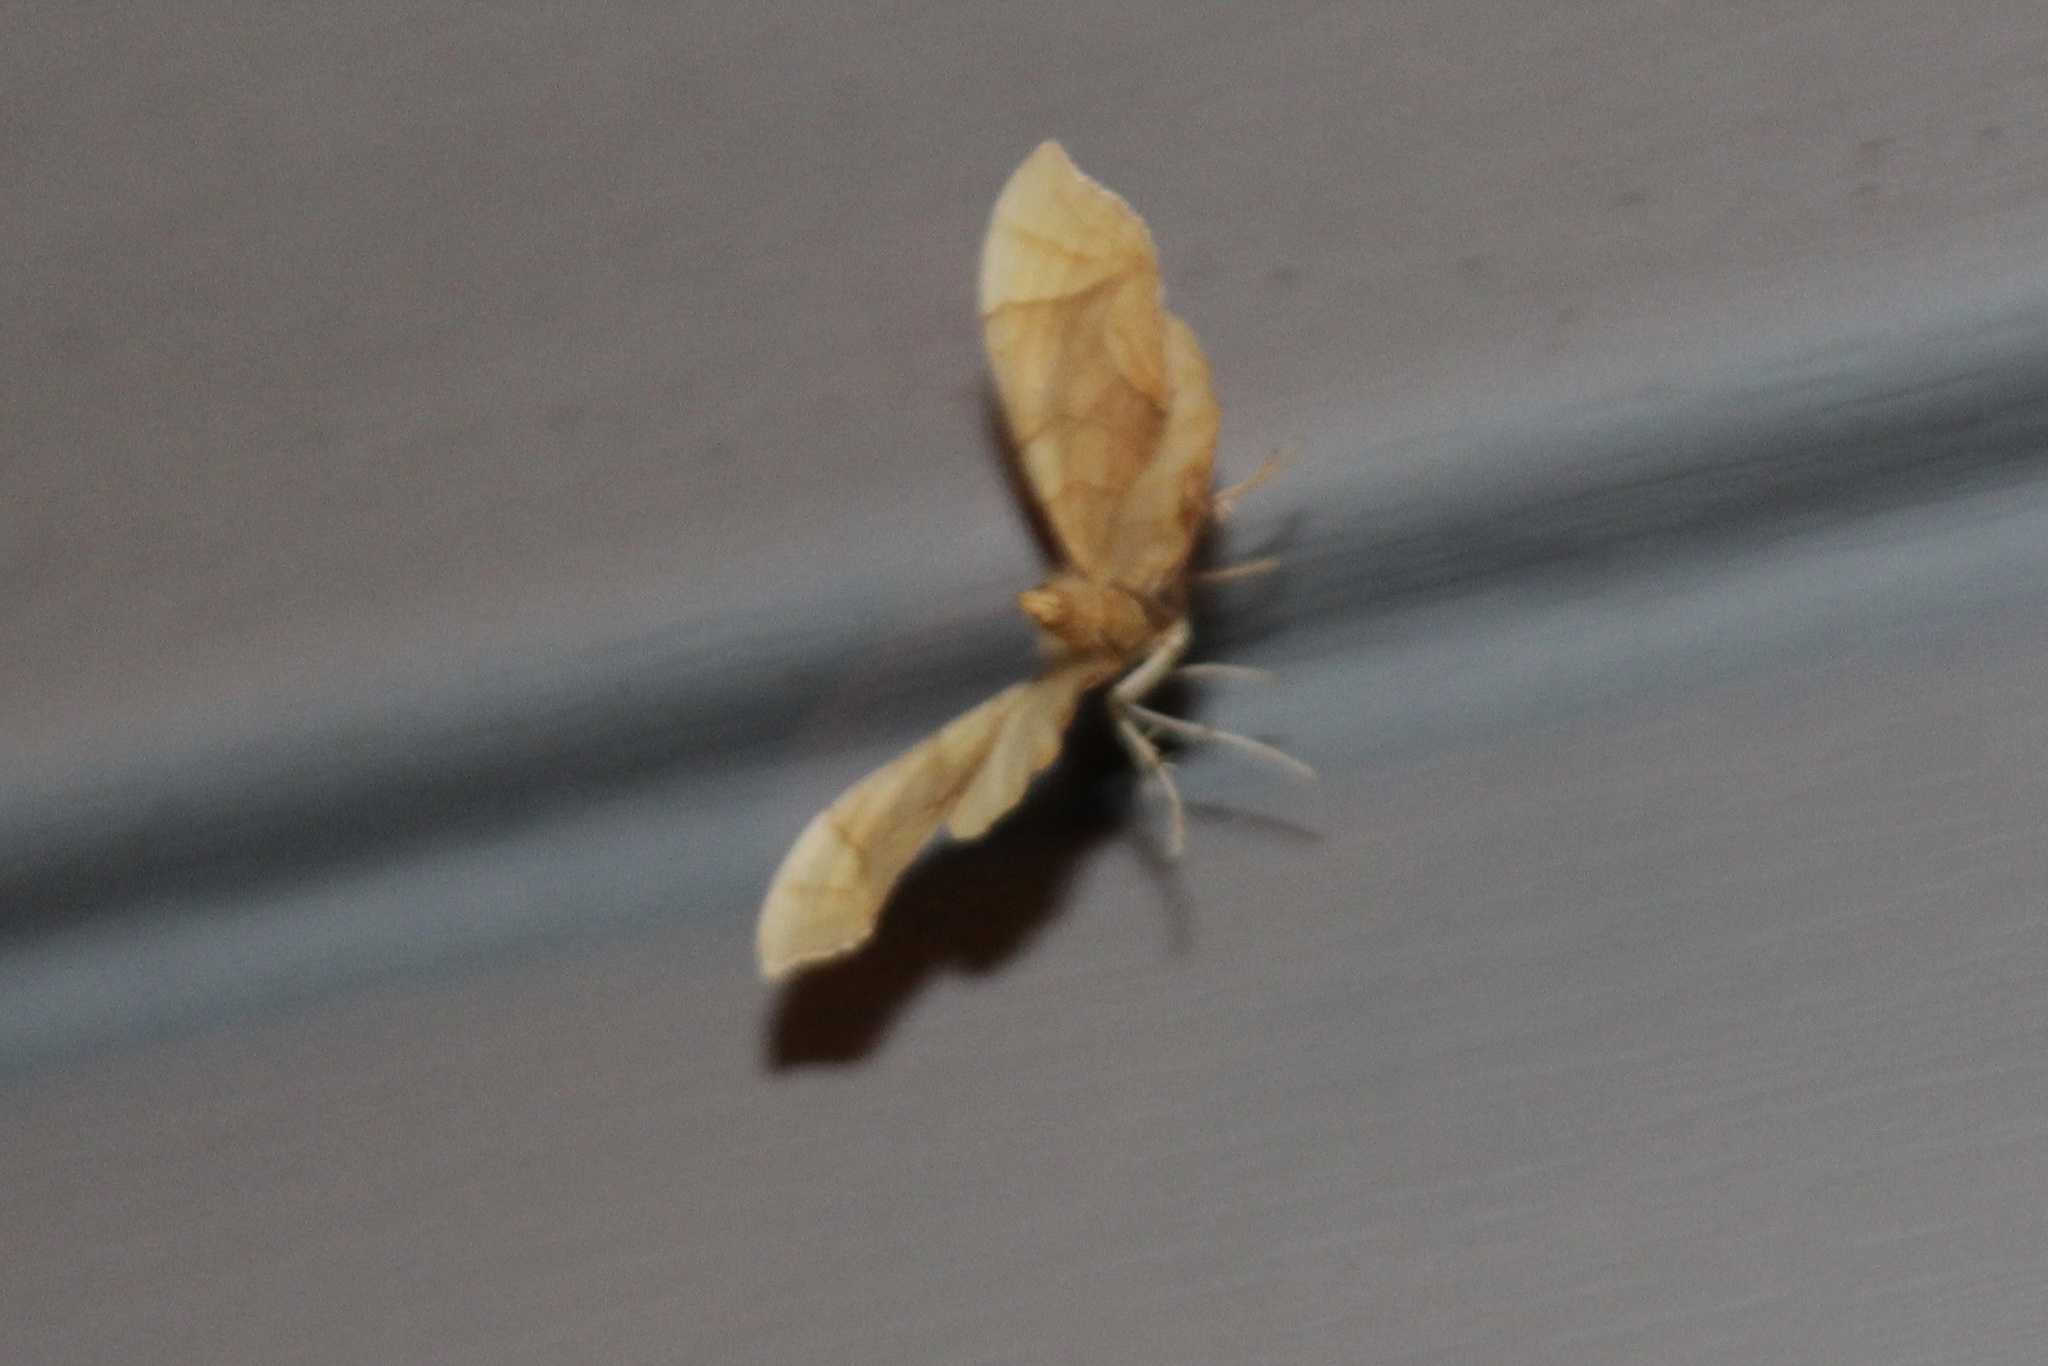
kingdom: Animalia
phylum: Arthropoda
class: Insecta
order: Lepidoptera
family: Geometridae
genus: Eulithis
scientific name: Eulithis
